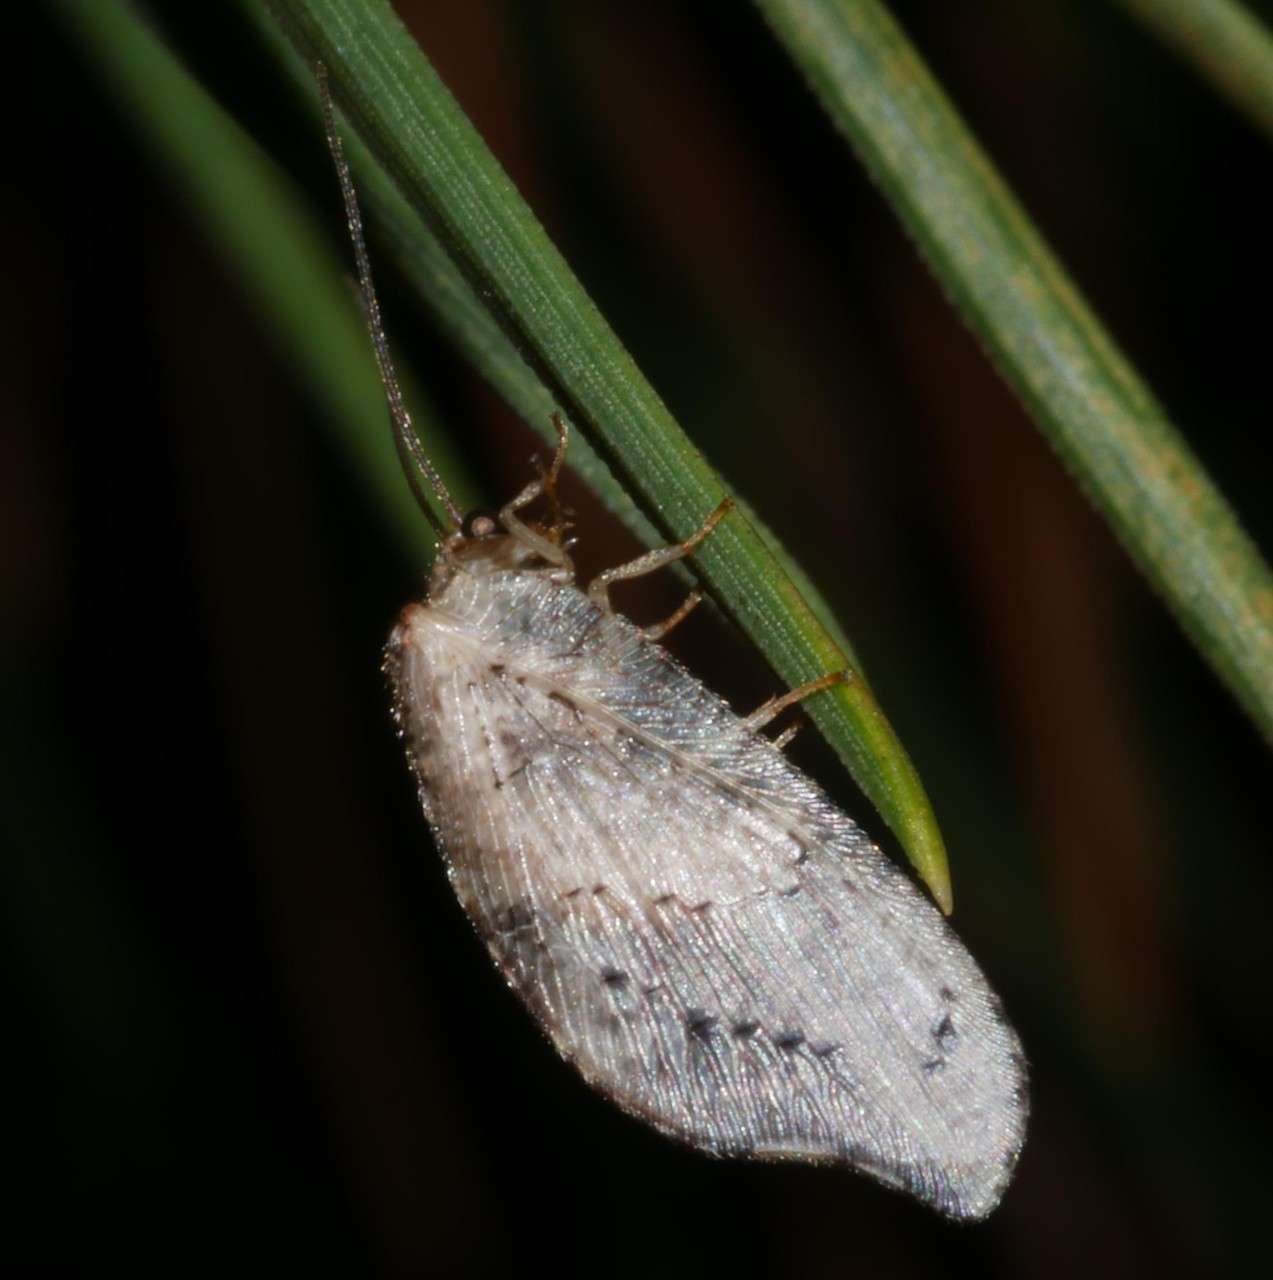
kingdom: Animalia
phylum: Arthropoda
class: Insecta
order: Neuroptera
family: Hemerobiidae
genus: Drepanacra
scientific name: Drepanacra binocula
